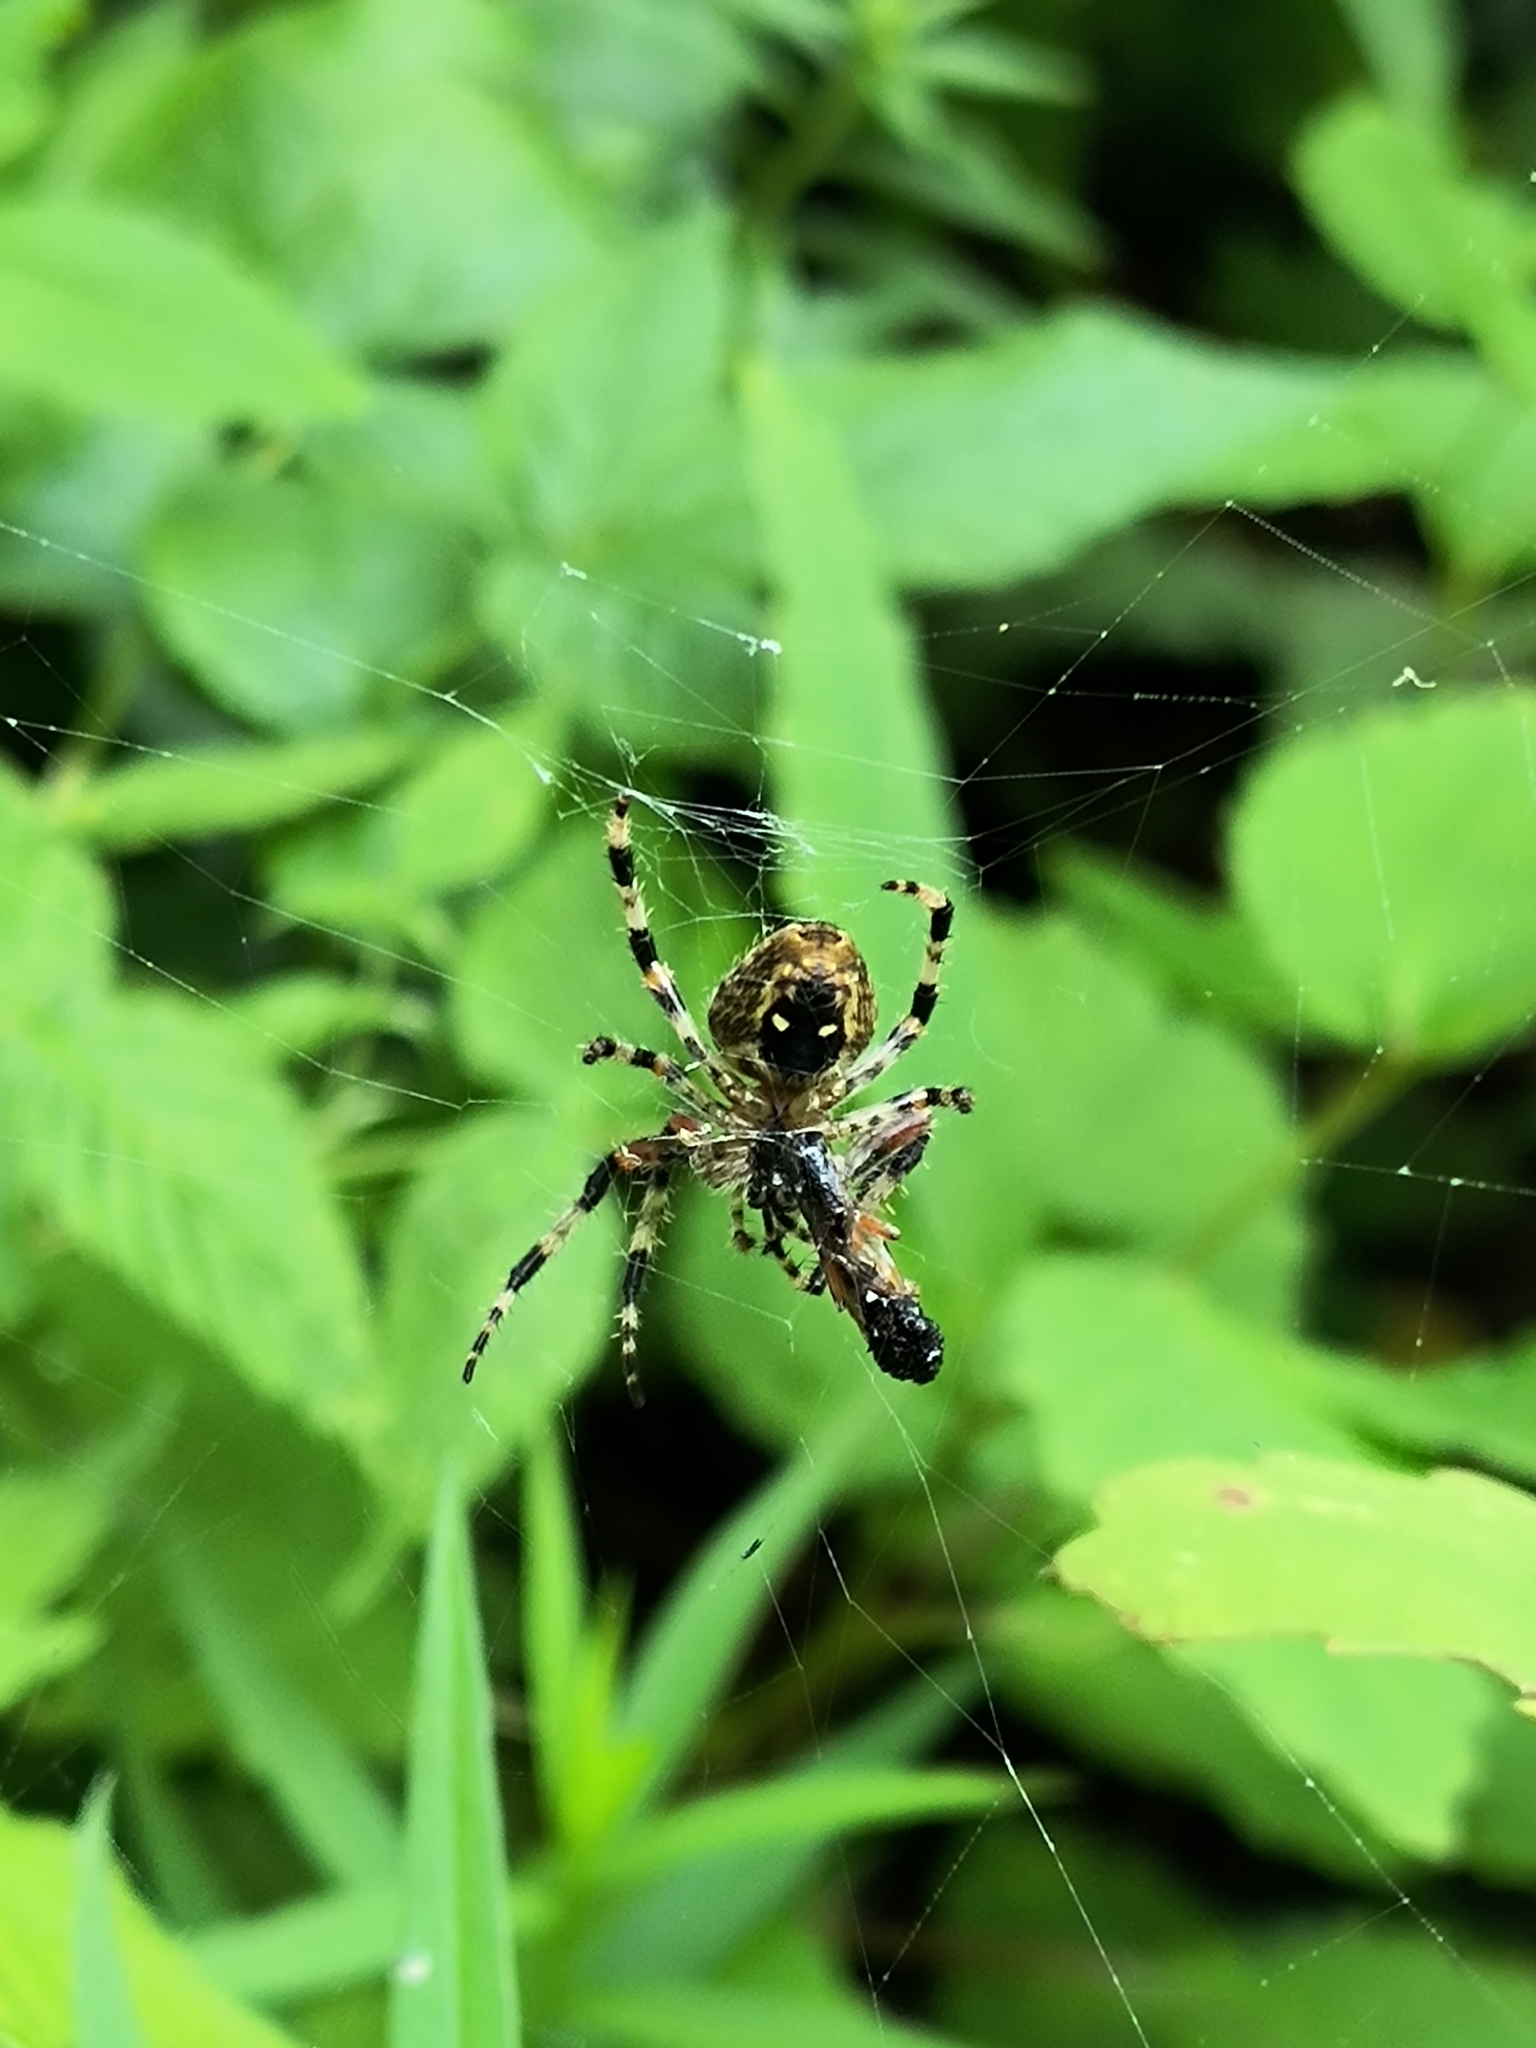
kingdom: Animalia
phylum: Arthropoda
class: Arachnida
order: Araneae
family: Araneidae
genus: Araneus
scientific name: Araneus nordmanni
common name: Nordmann's orbweaver
